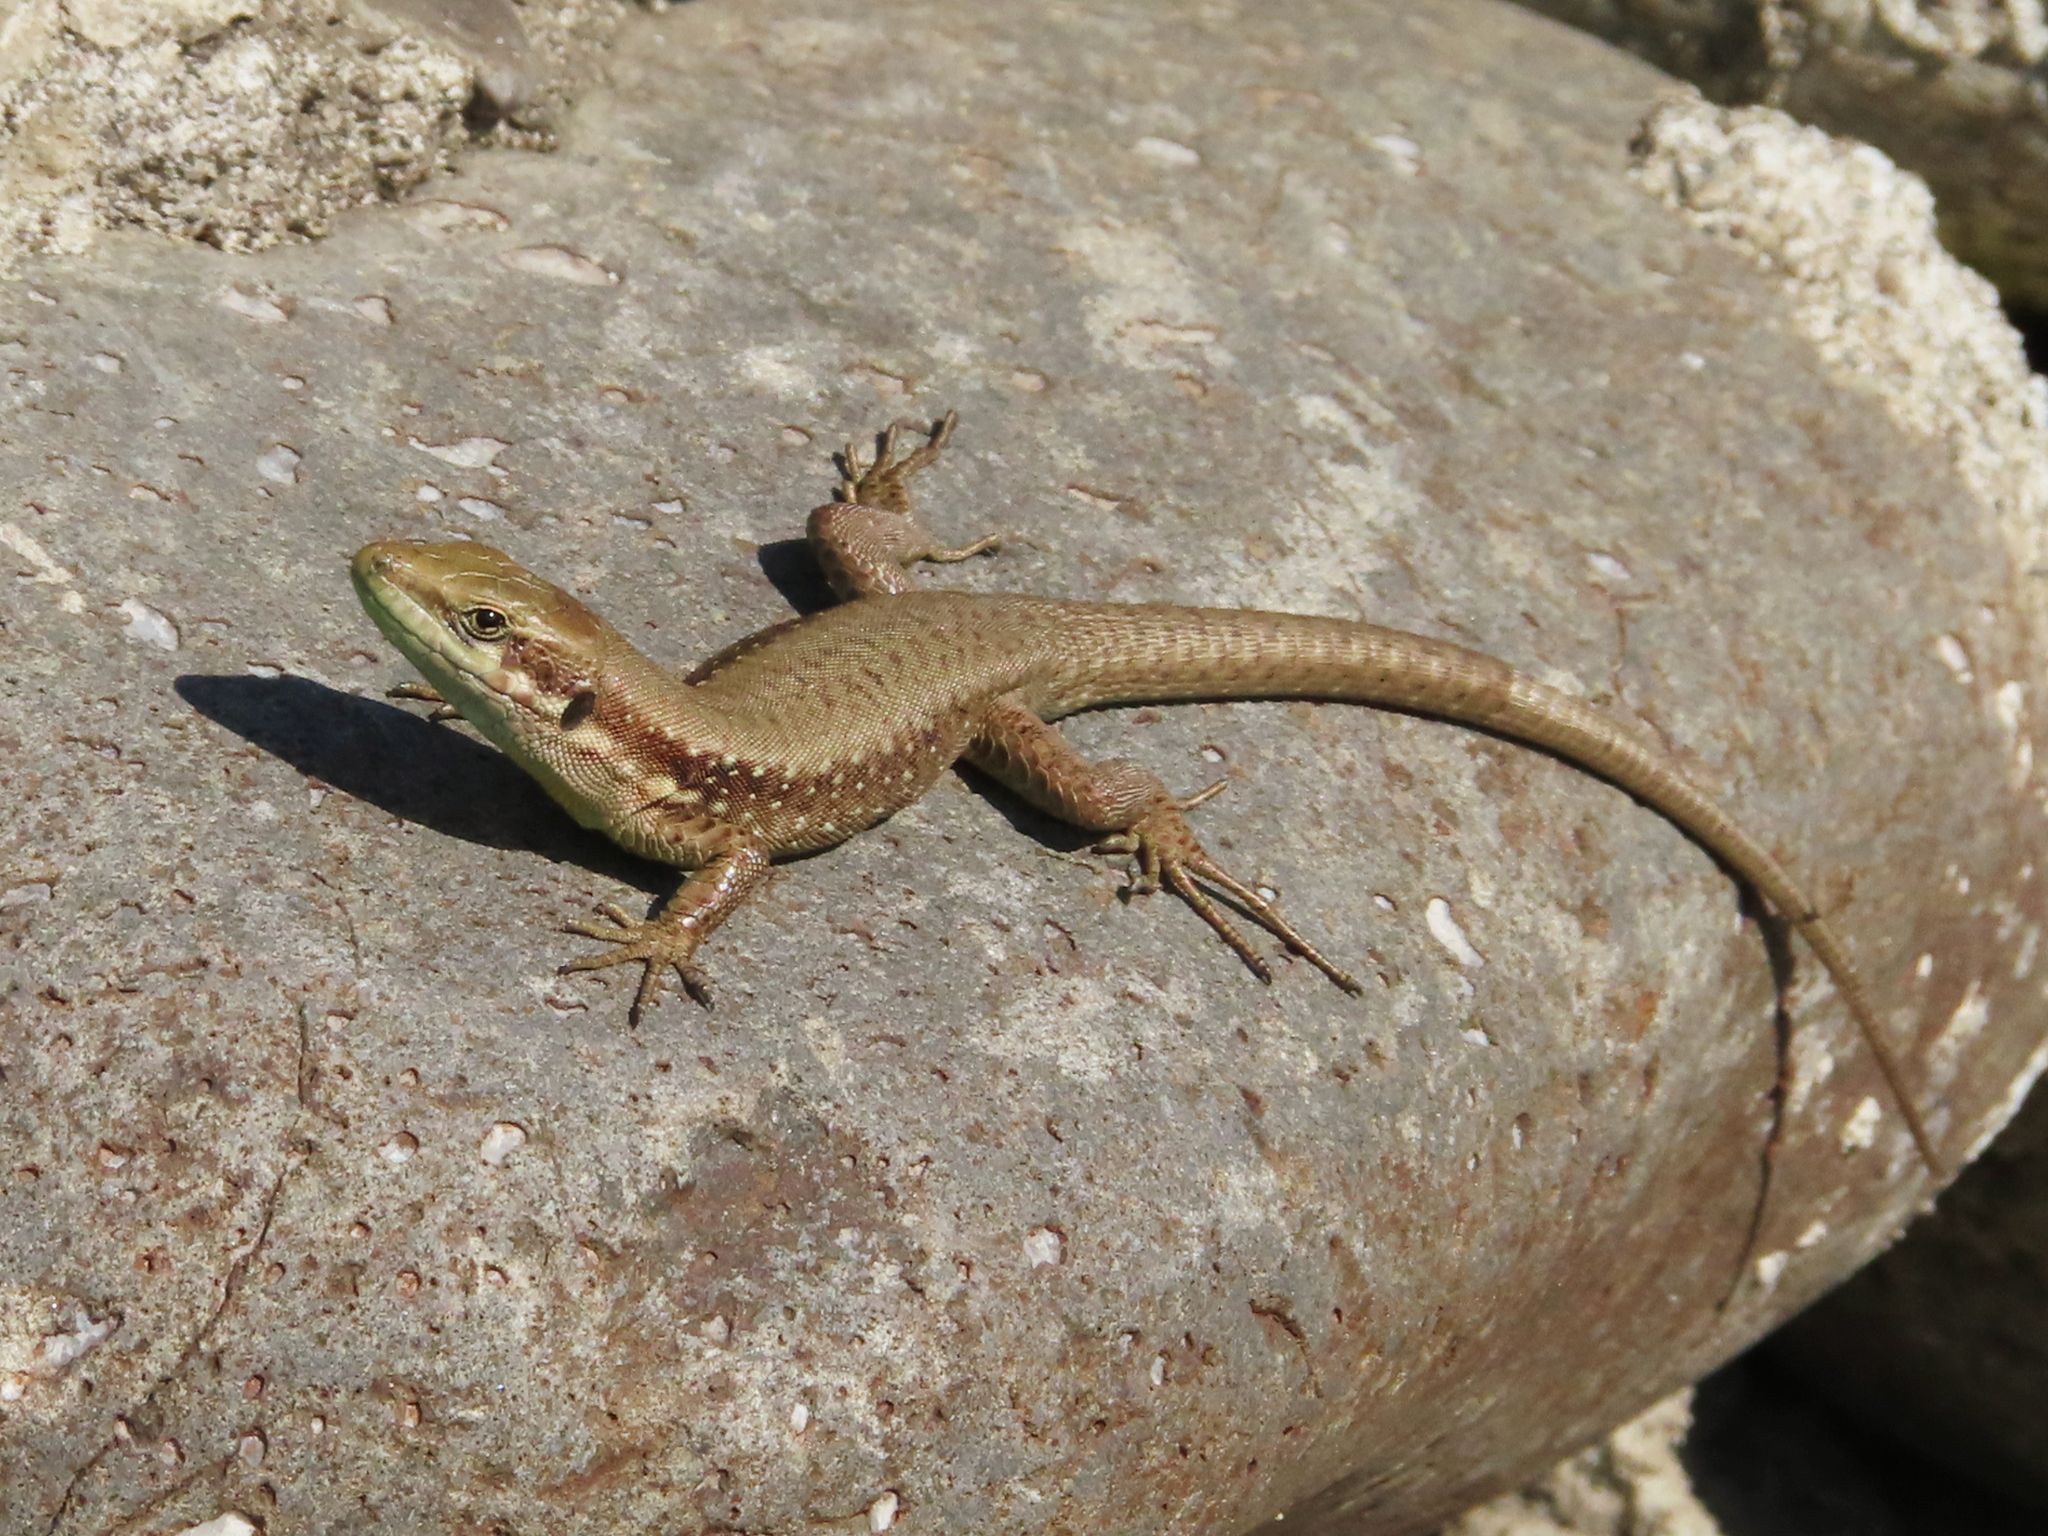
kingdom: Animalia
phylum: Chordata
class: Squamata
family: Lacertidae
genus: Phoenicolacerta
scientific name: Phoenicolacerta laevis
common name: Lebanon lizard
